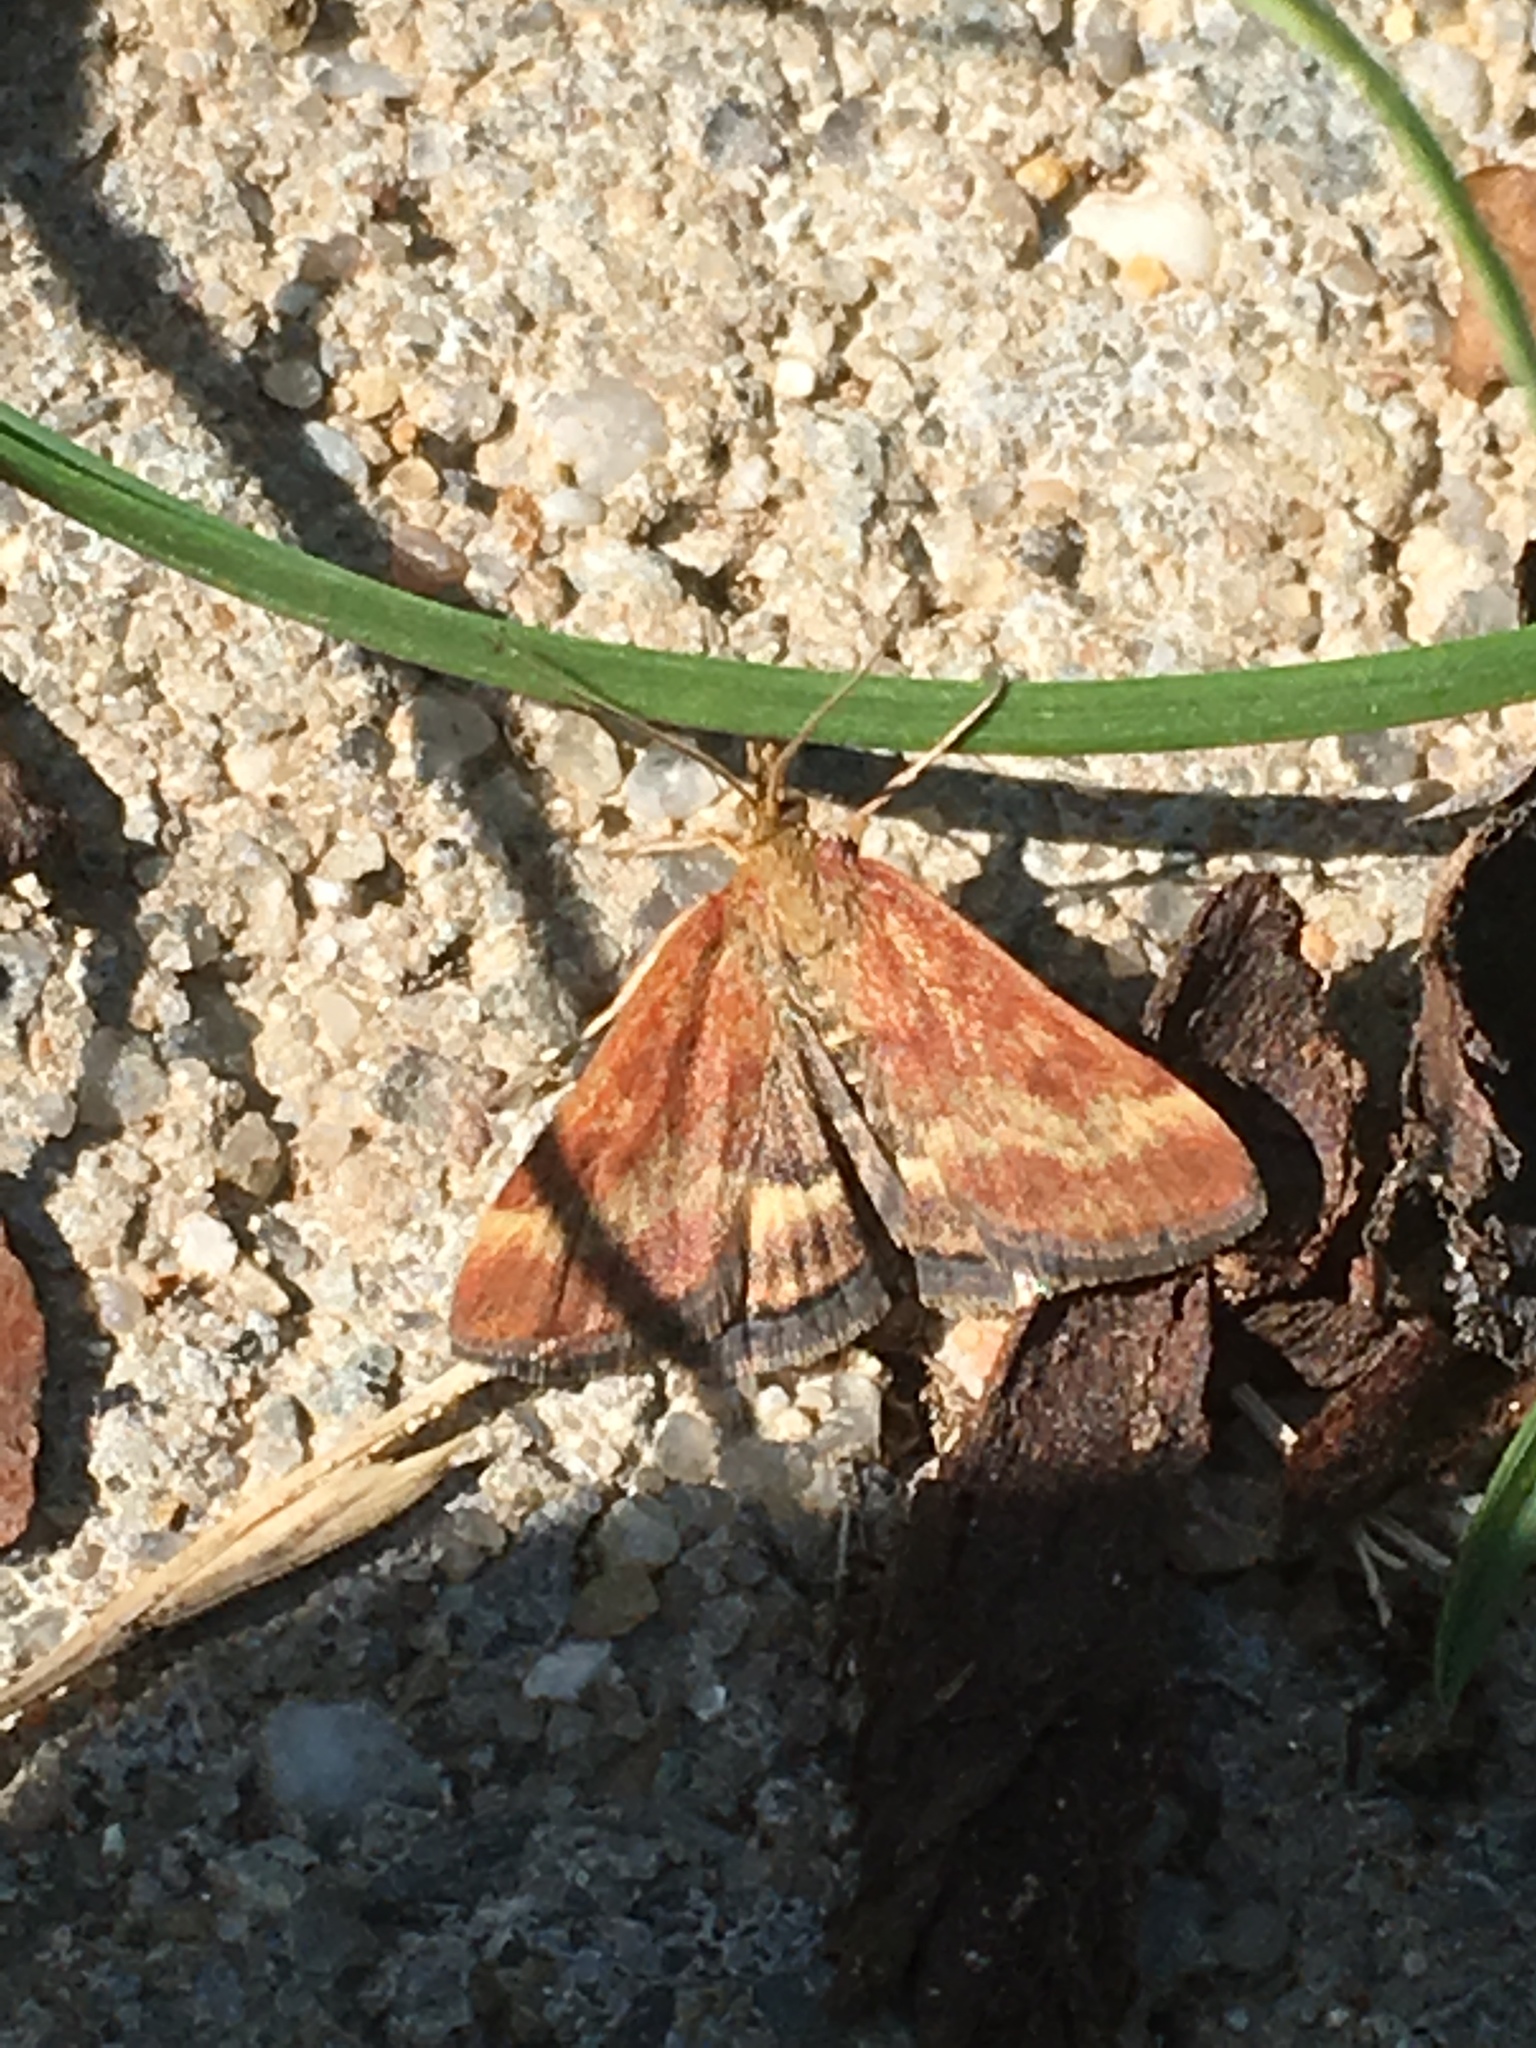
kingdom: Animalia
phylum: Arthropoda
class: Insecta
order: Lepidoptera
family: Crambidae
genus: Pyrausta
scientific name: Pyrausta despicata
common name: Straw-barred pearl
